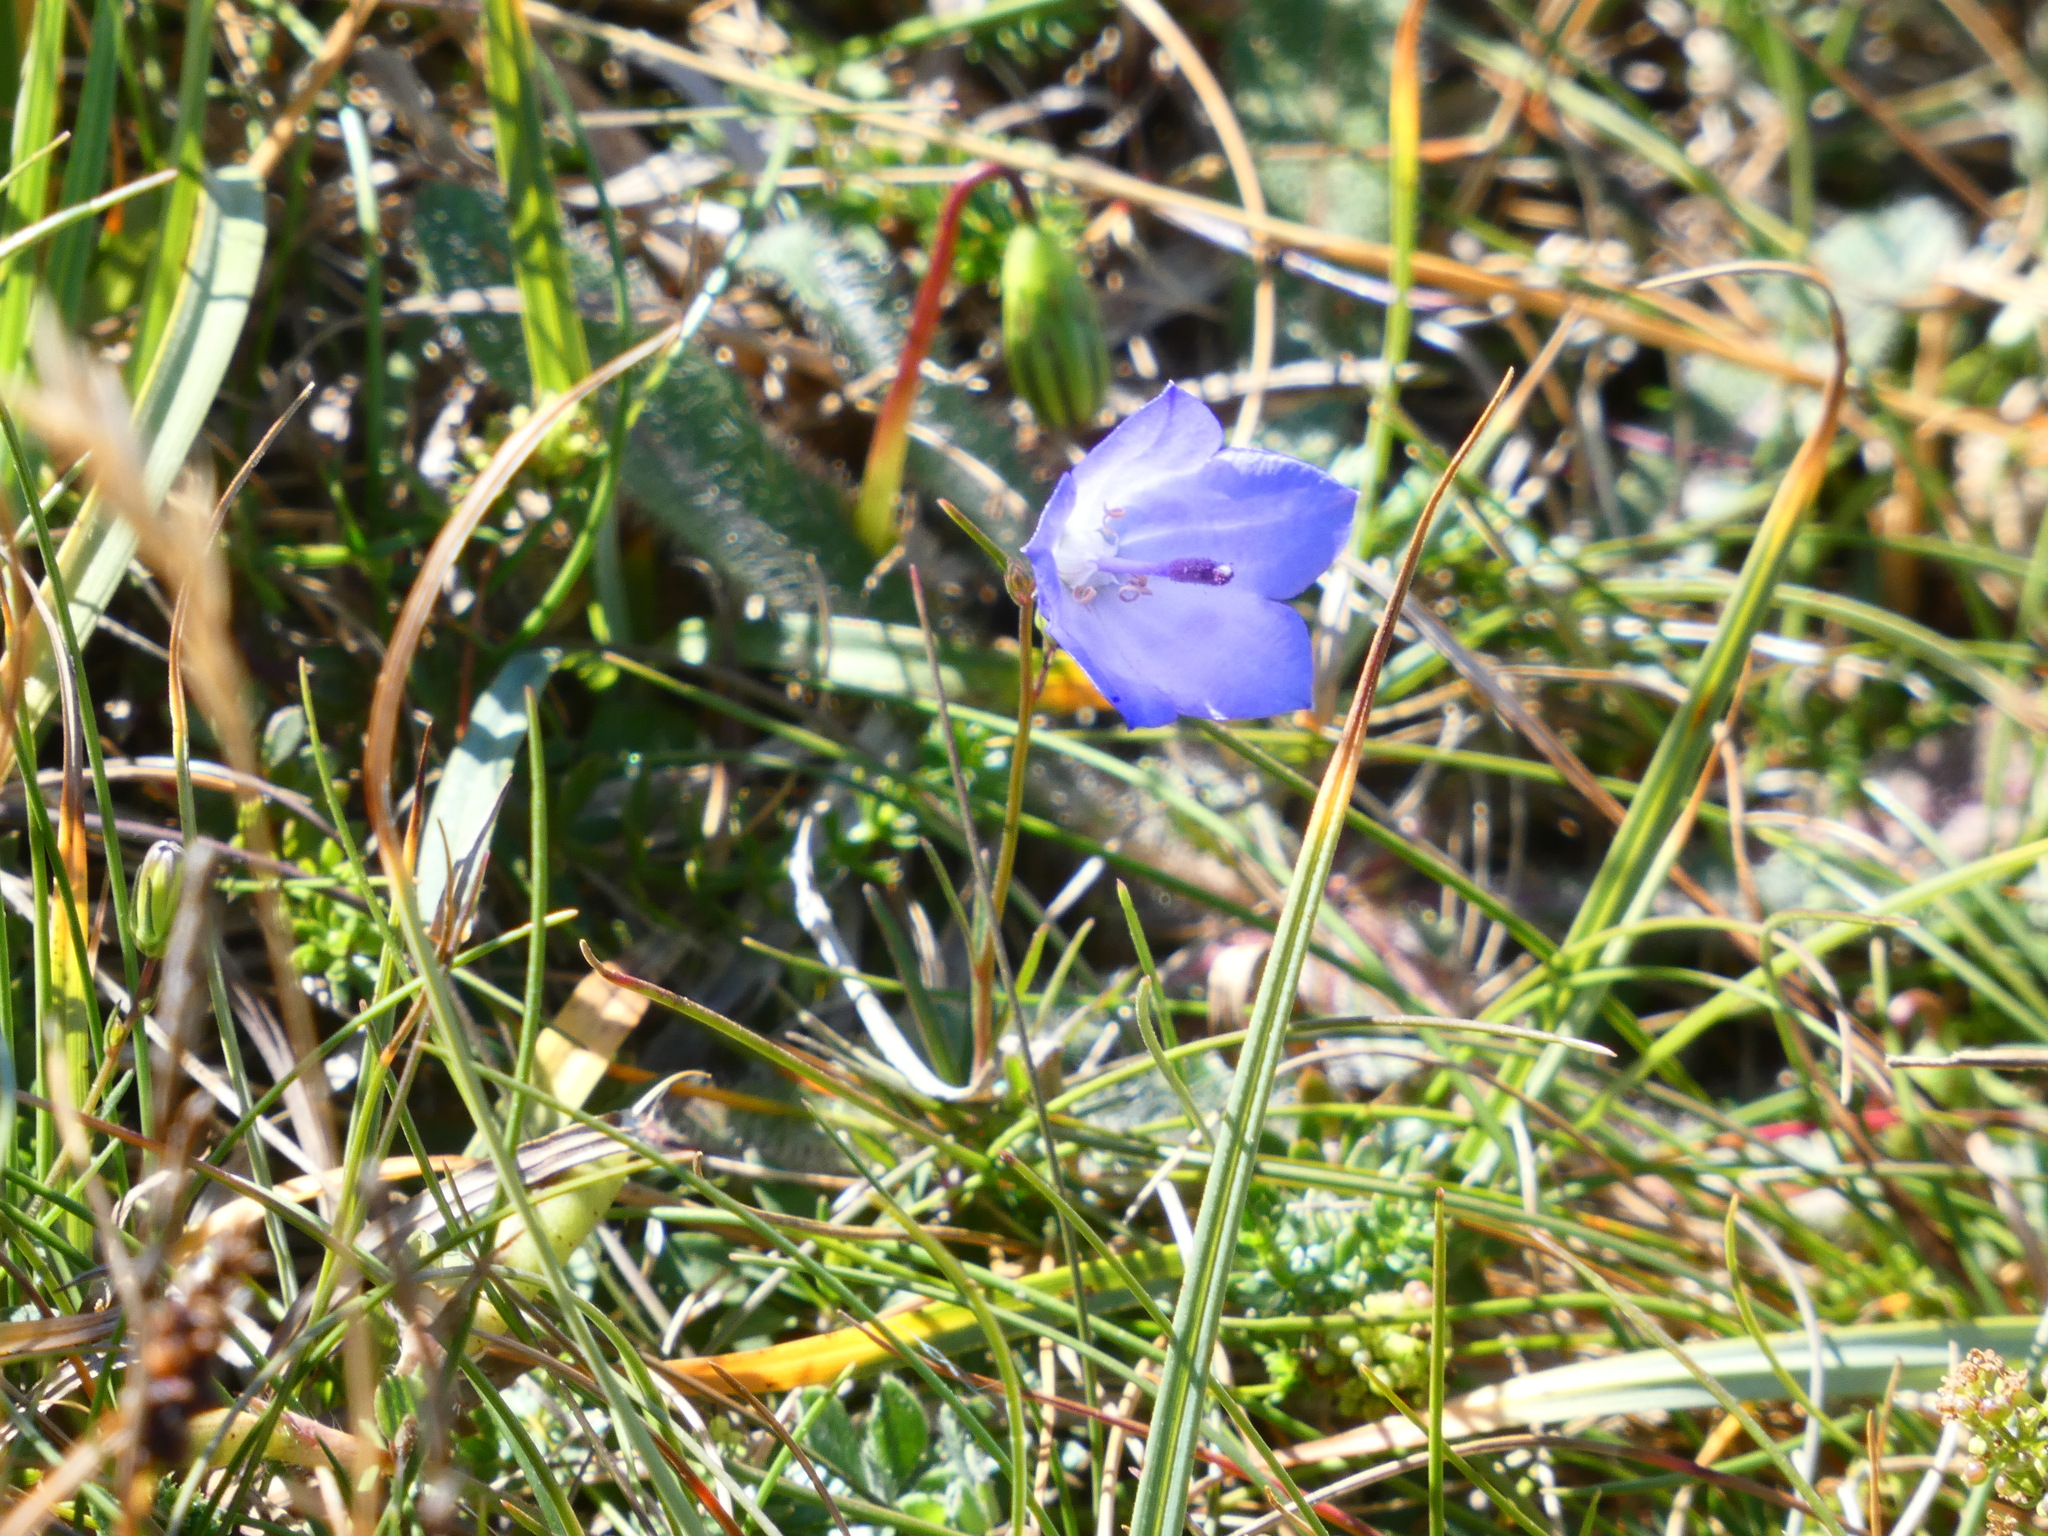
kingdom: Plantae
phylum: Tracheophyta
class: Magnoliopsida
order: Asterales
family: Campanulaceae
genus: Campanula
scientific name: Campanula rotundifolia
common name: Harebell
